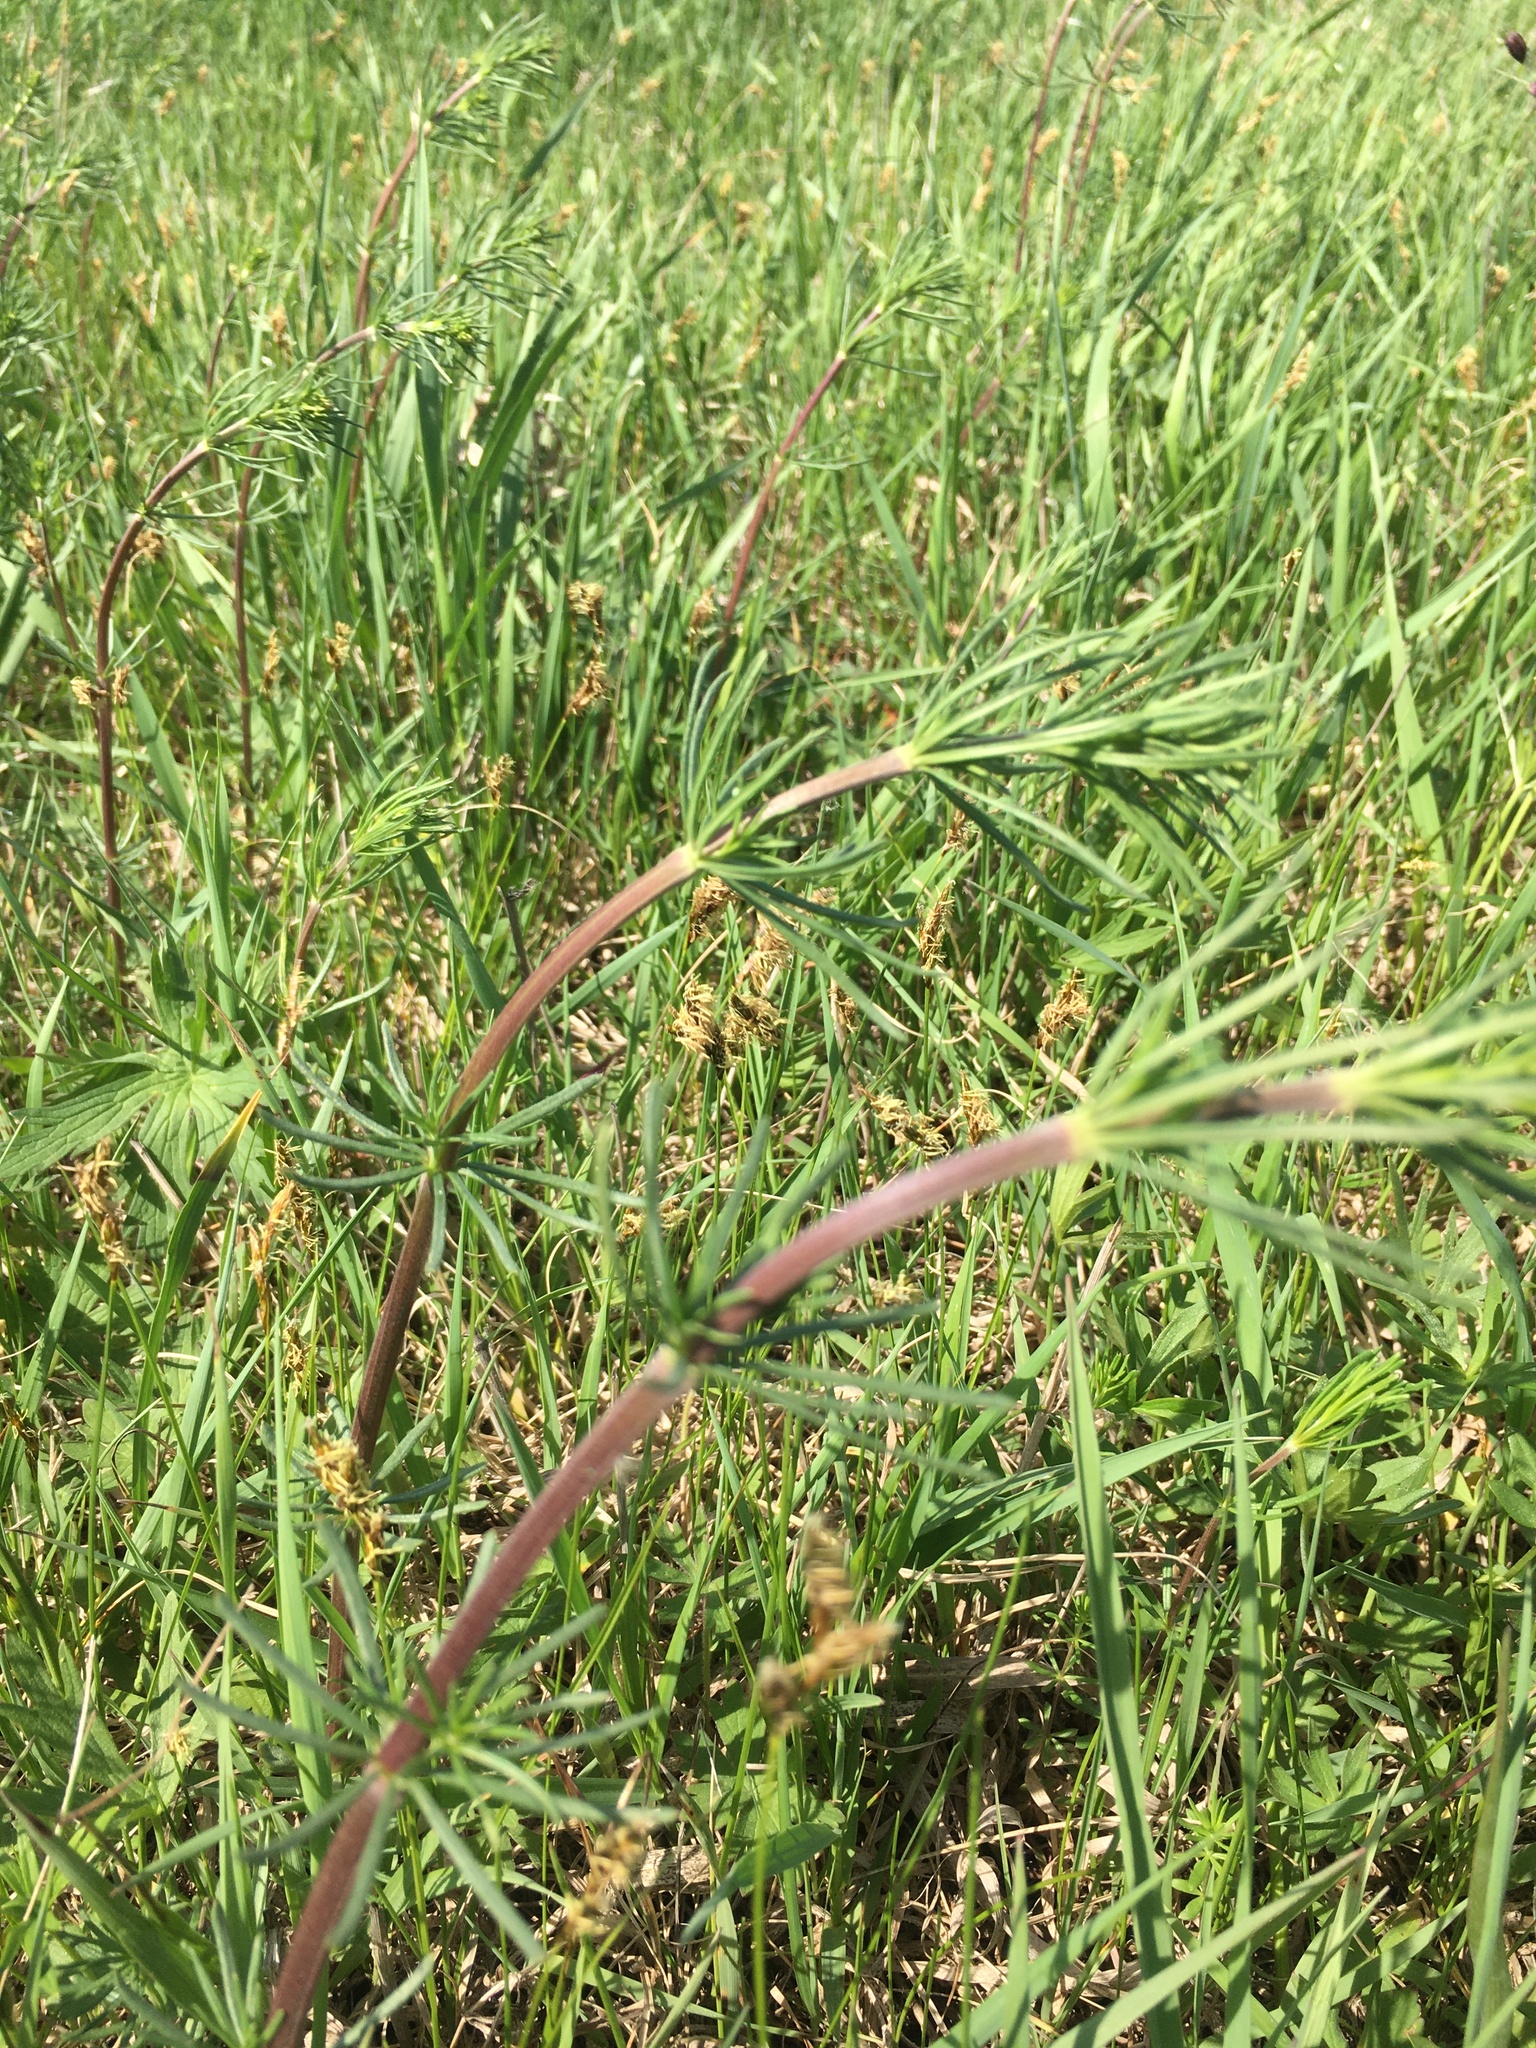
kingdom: Plantae
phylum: Tracheophyta
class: Magnoliopsida
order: Gentianales
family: Rubiaceae
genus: Galium
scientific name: Galium verum
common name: Lady's bedstraw
